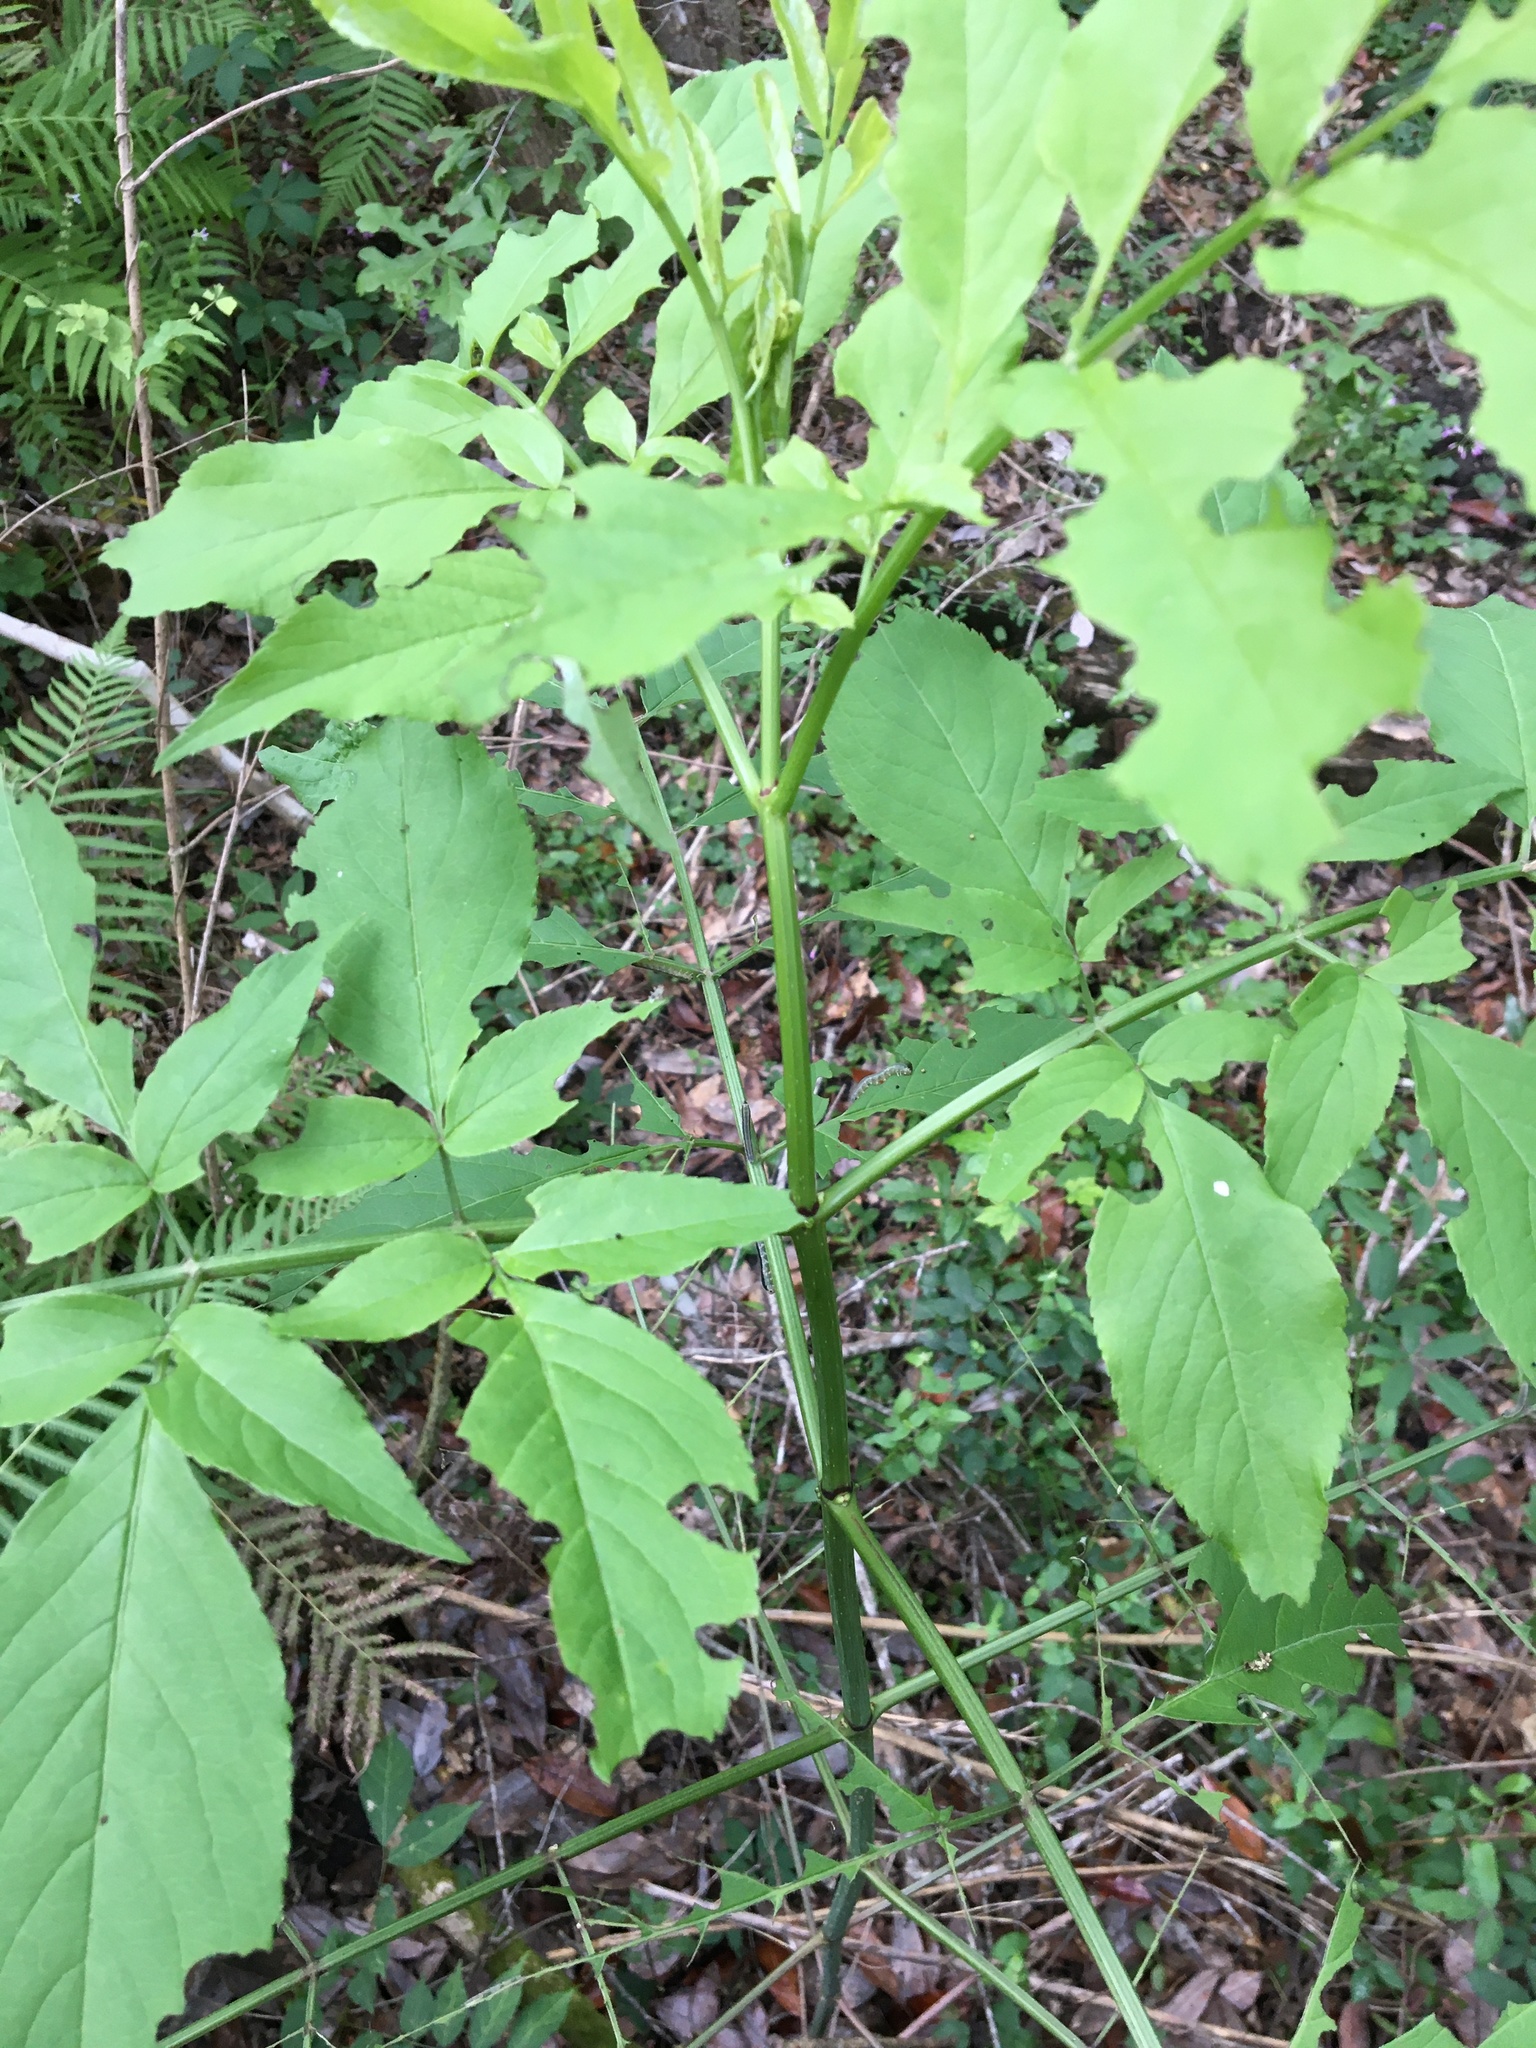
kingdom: Plantae
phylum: Tracheophyta
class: Magnoliopsida
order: Dipsacales
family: Viburnaceae
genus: Sambucus
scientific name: Sambucus canadensis
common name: American elder
